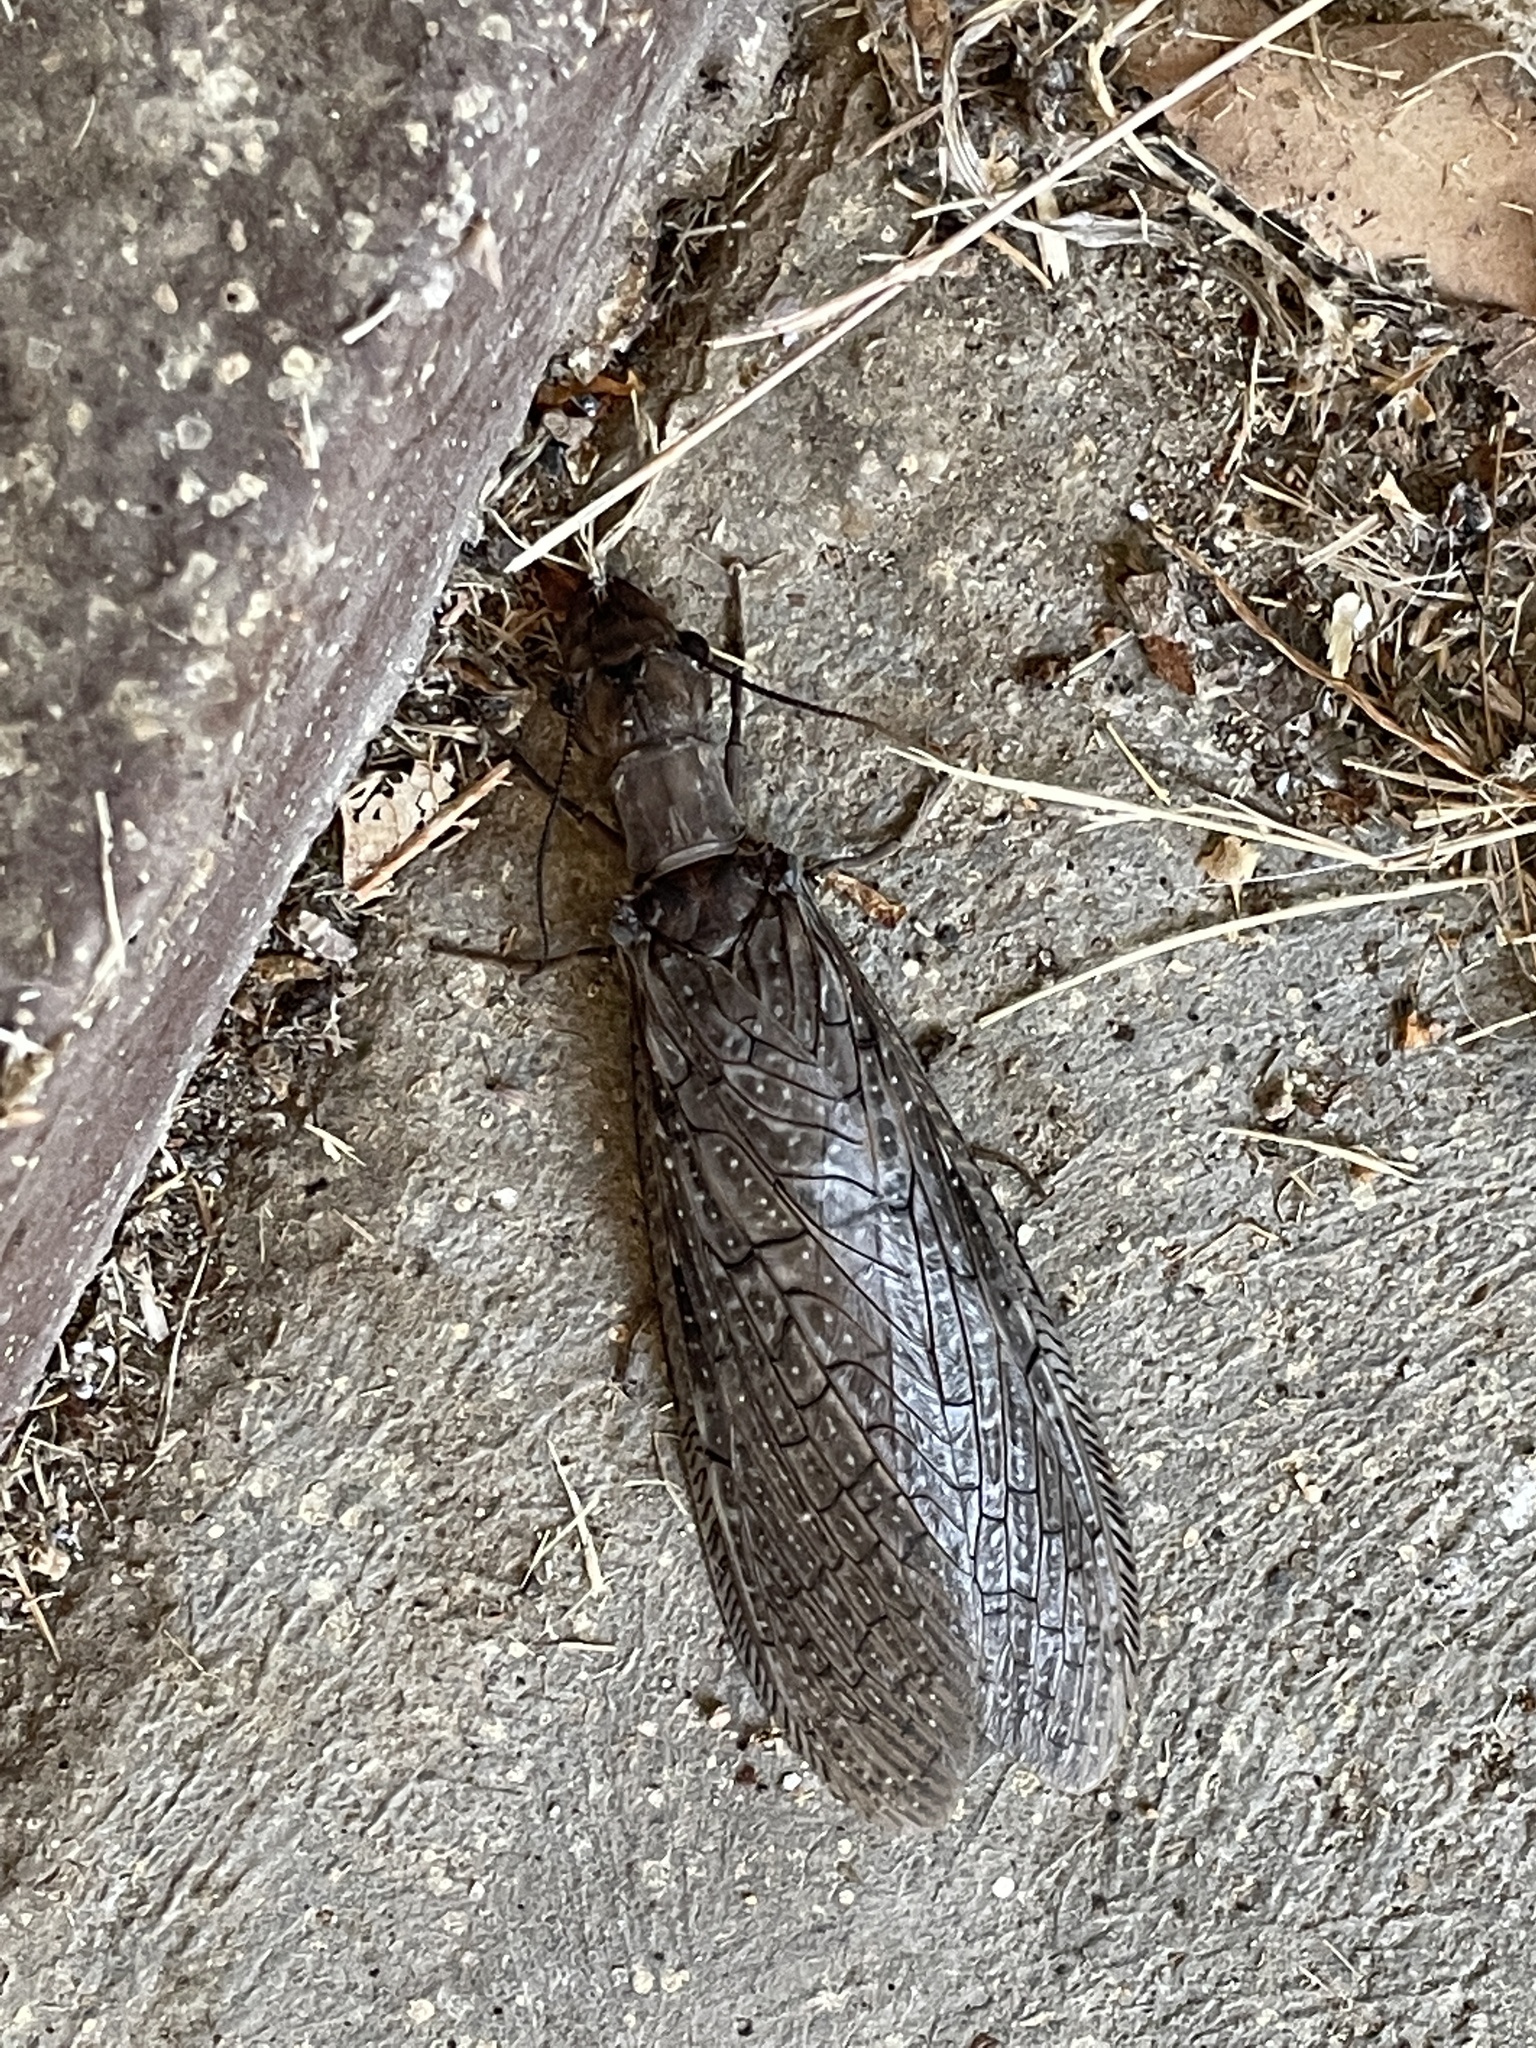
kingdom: Animalia
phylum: Arthropoda
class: Insecta
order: Megaloptera
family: Corydalidae
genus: Corydalus
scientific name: Corydalus texanus
